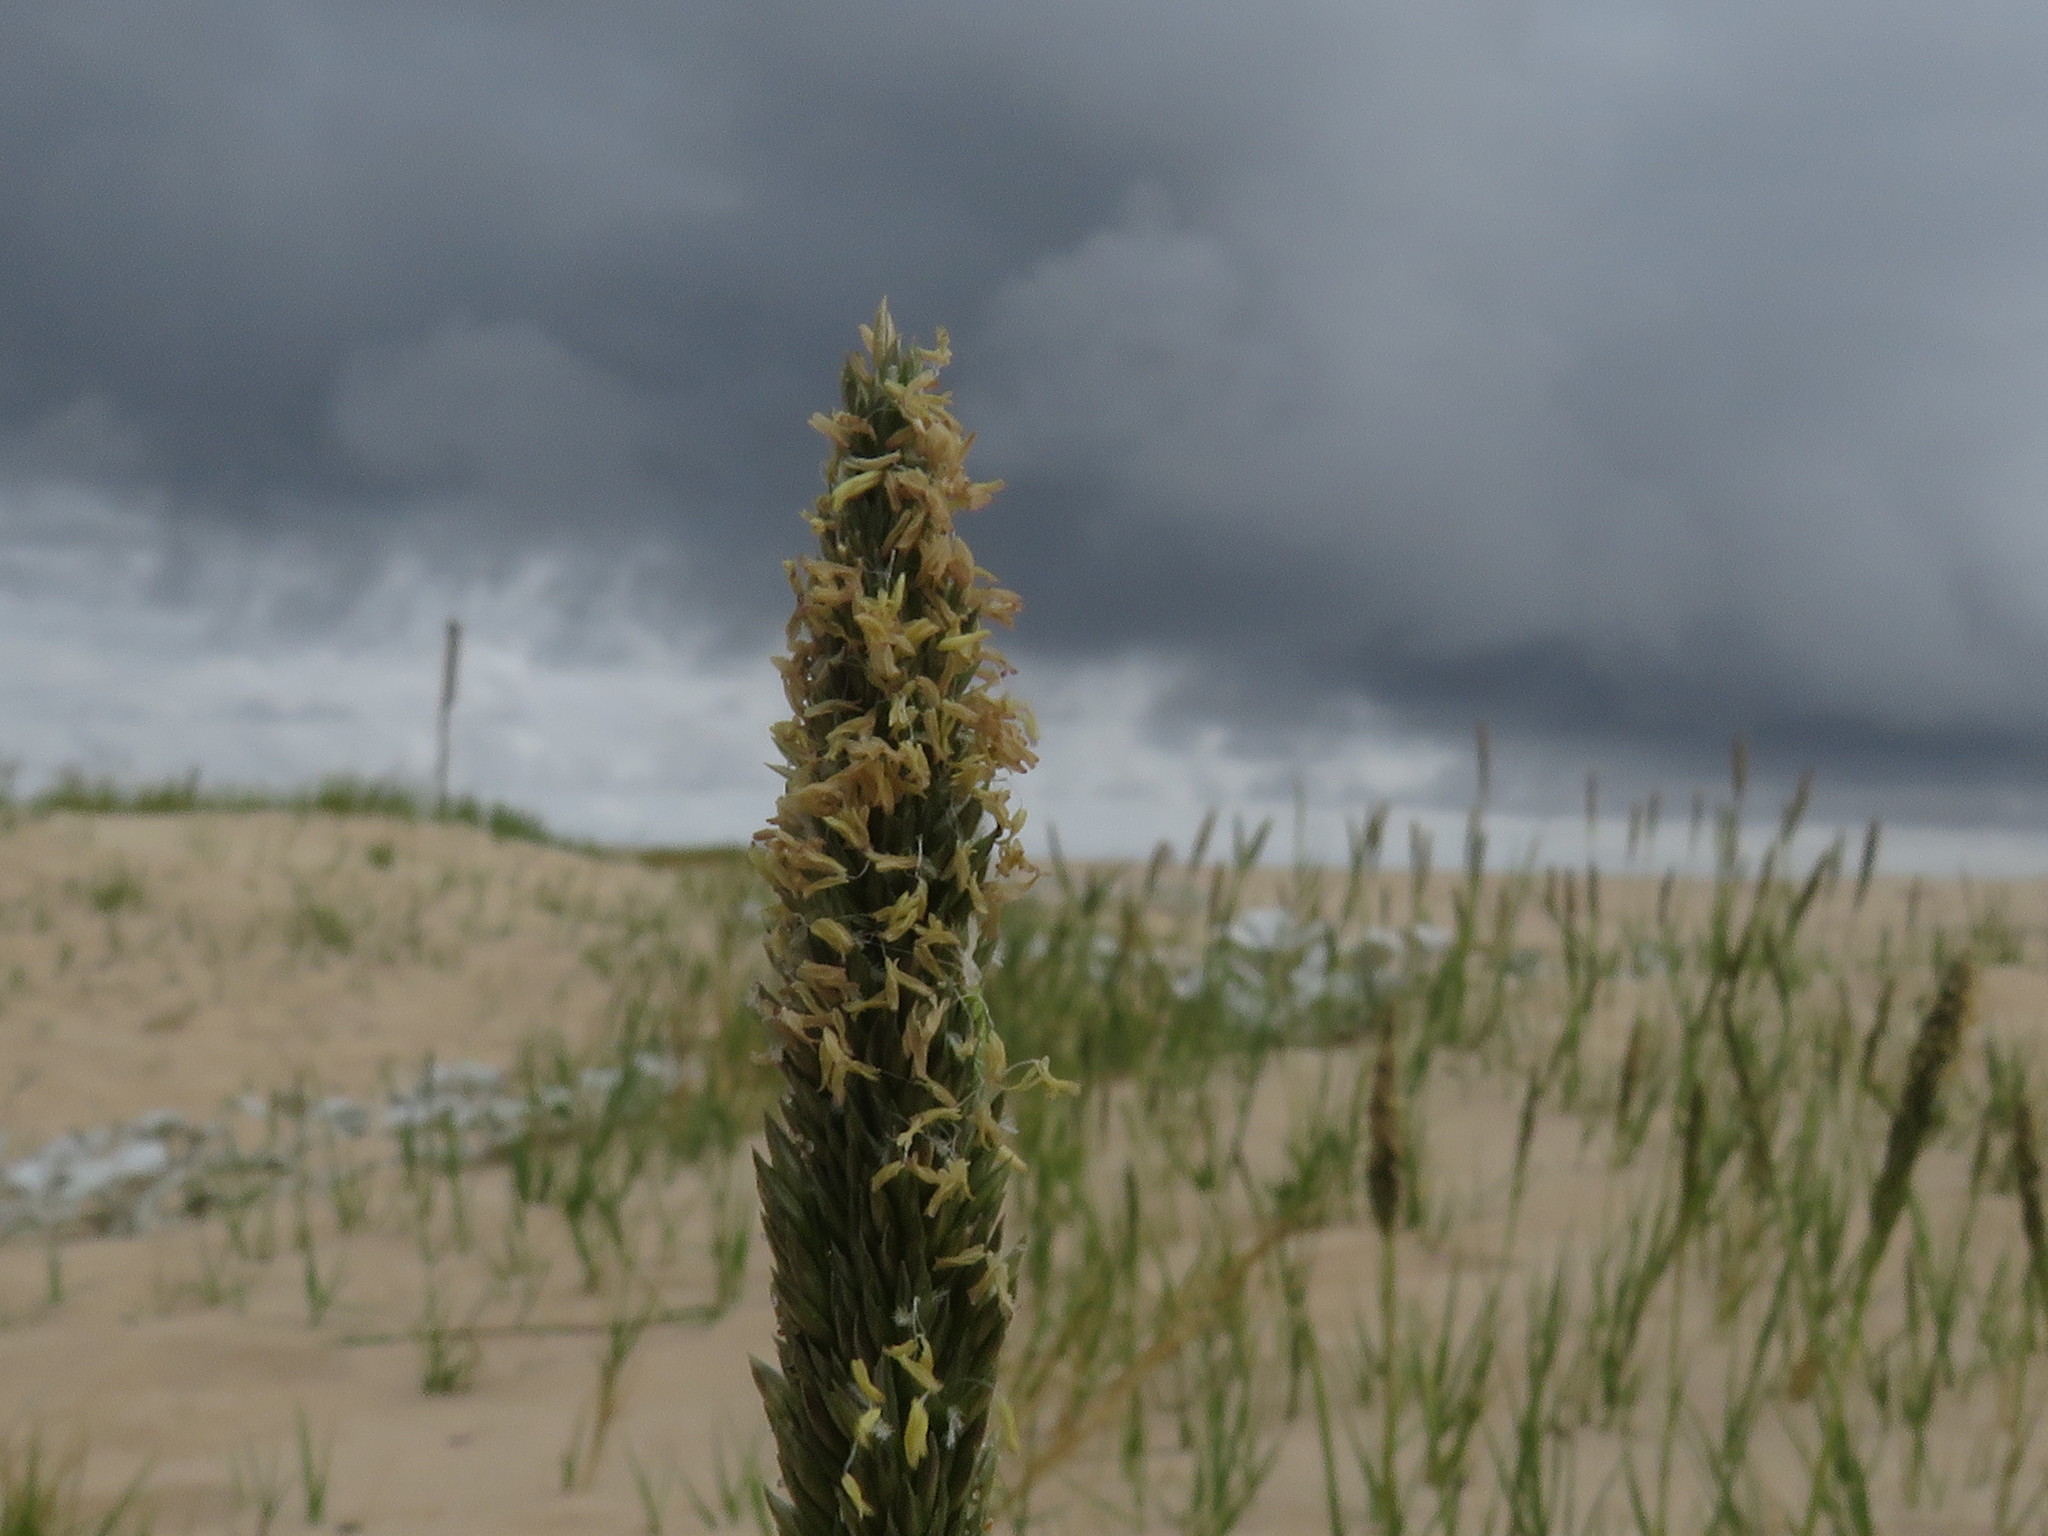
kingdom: Plantae
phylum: Tracheophyta
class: Liliopsida
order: Poales
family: Poaceae
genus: Sporobolus
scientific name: Sporobolus virginicus
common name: Beach dropseed
